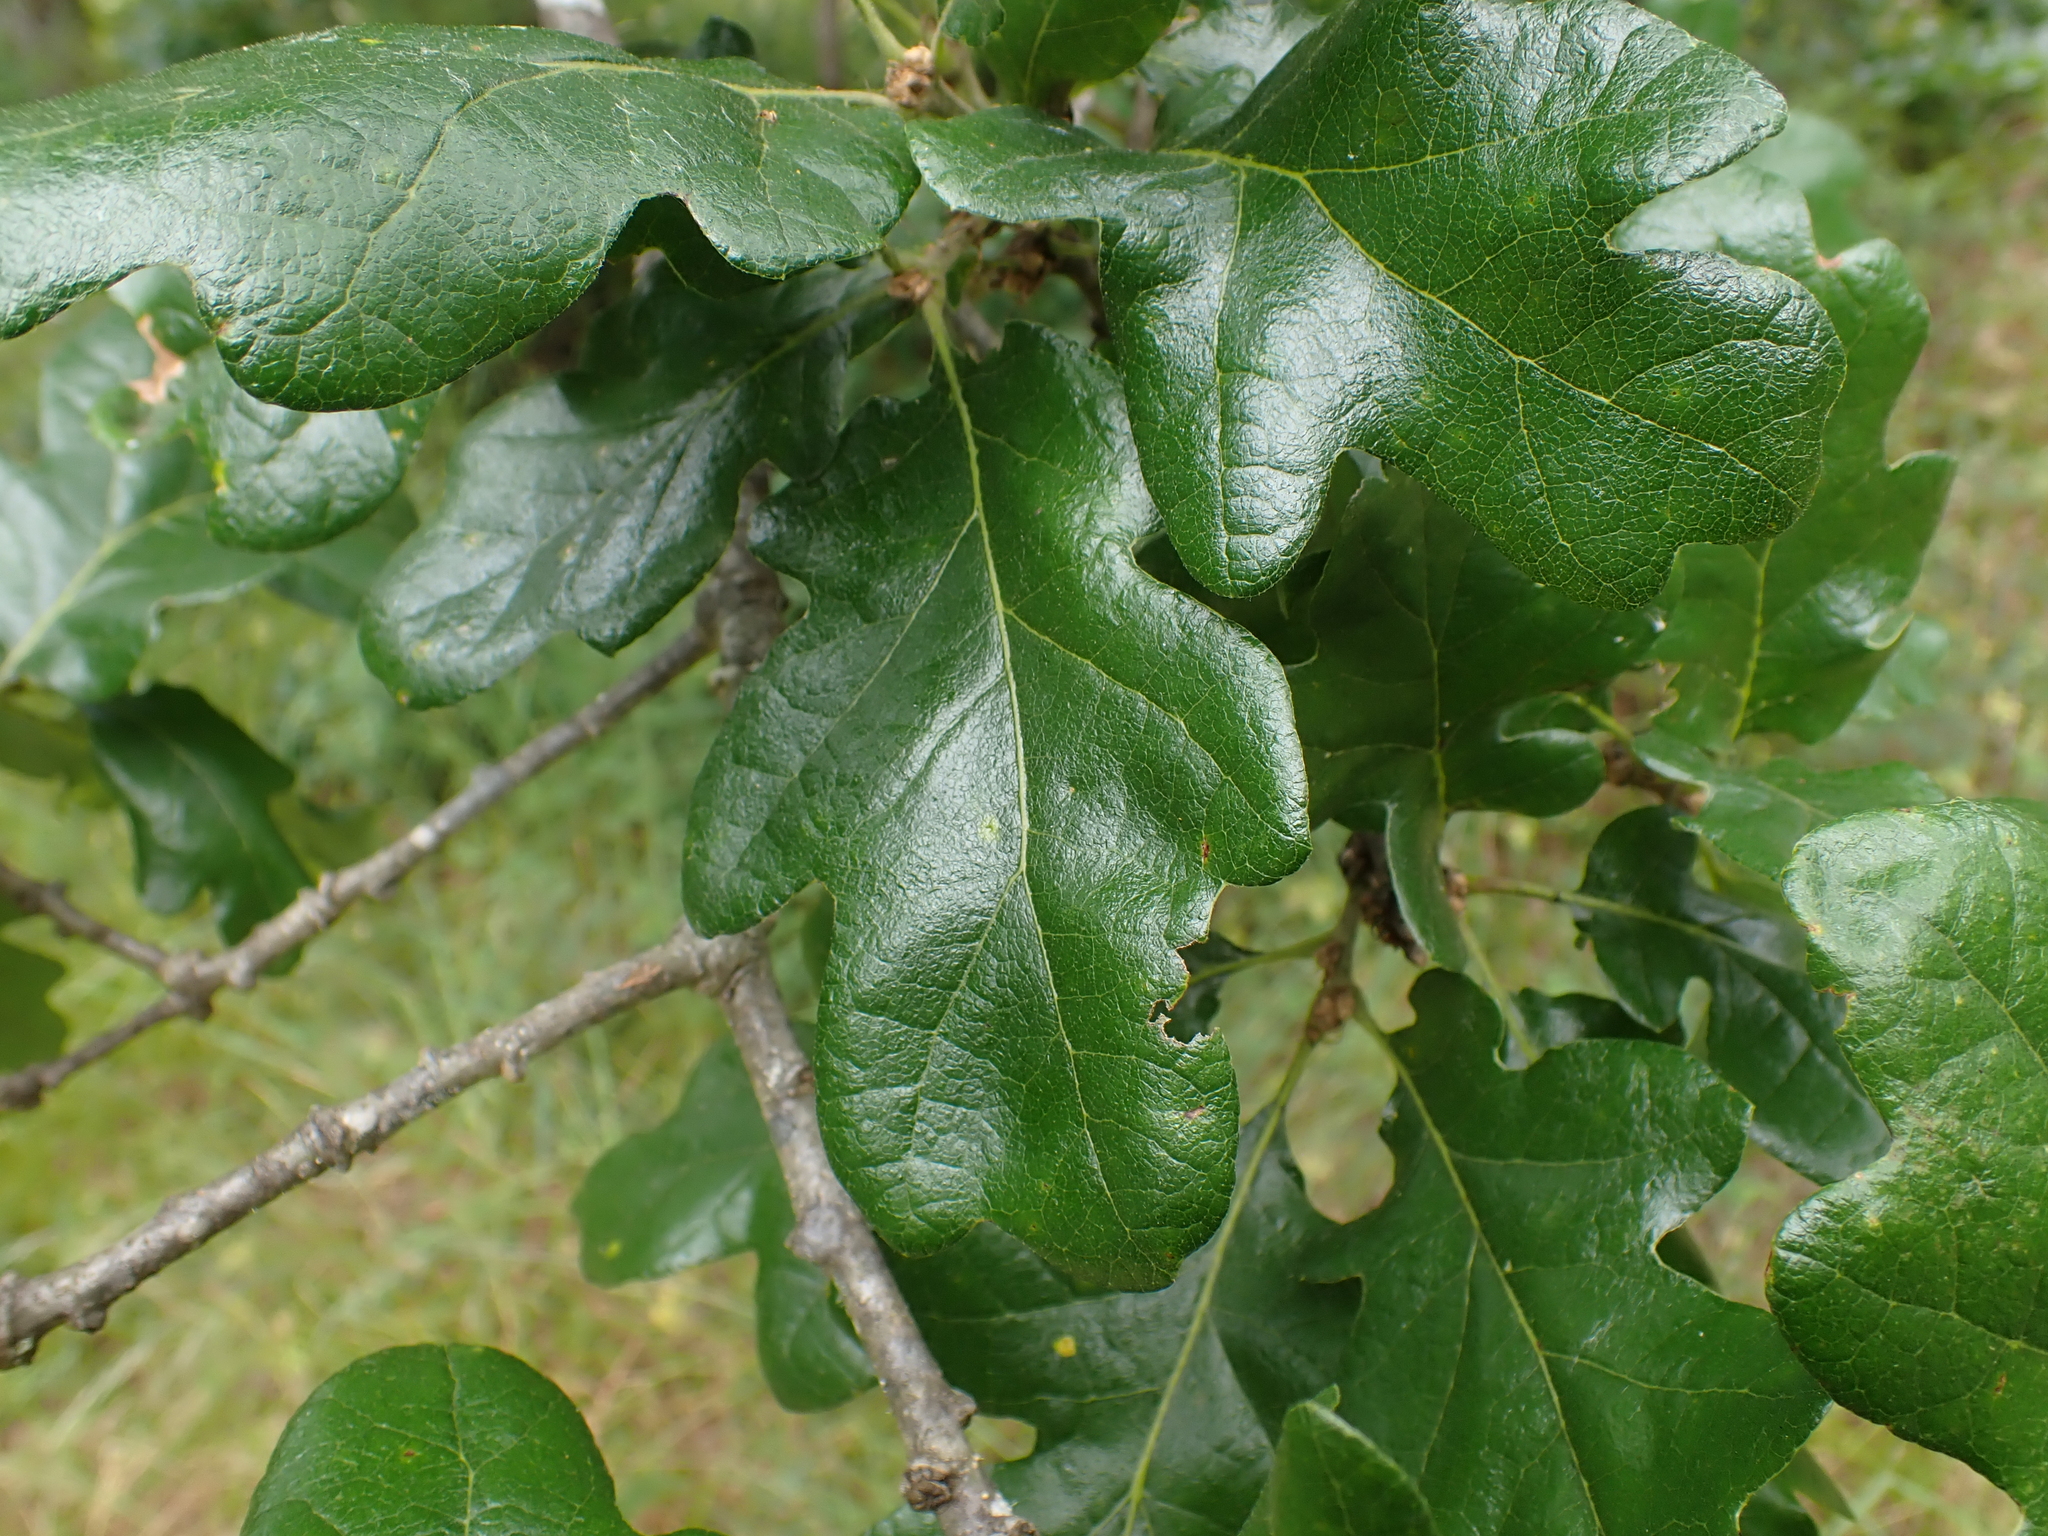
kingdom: Plantae
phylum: Tracheophyta
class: Magnoliopsida
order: Fagales
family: Fagaceae
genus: Quercus
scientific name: Quercus garryana
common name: Garry oak
